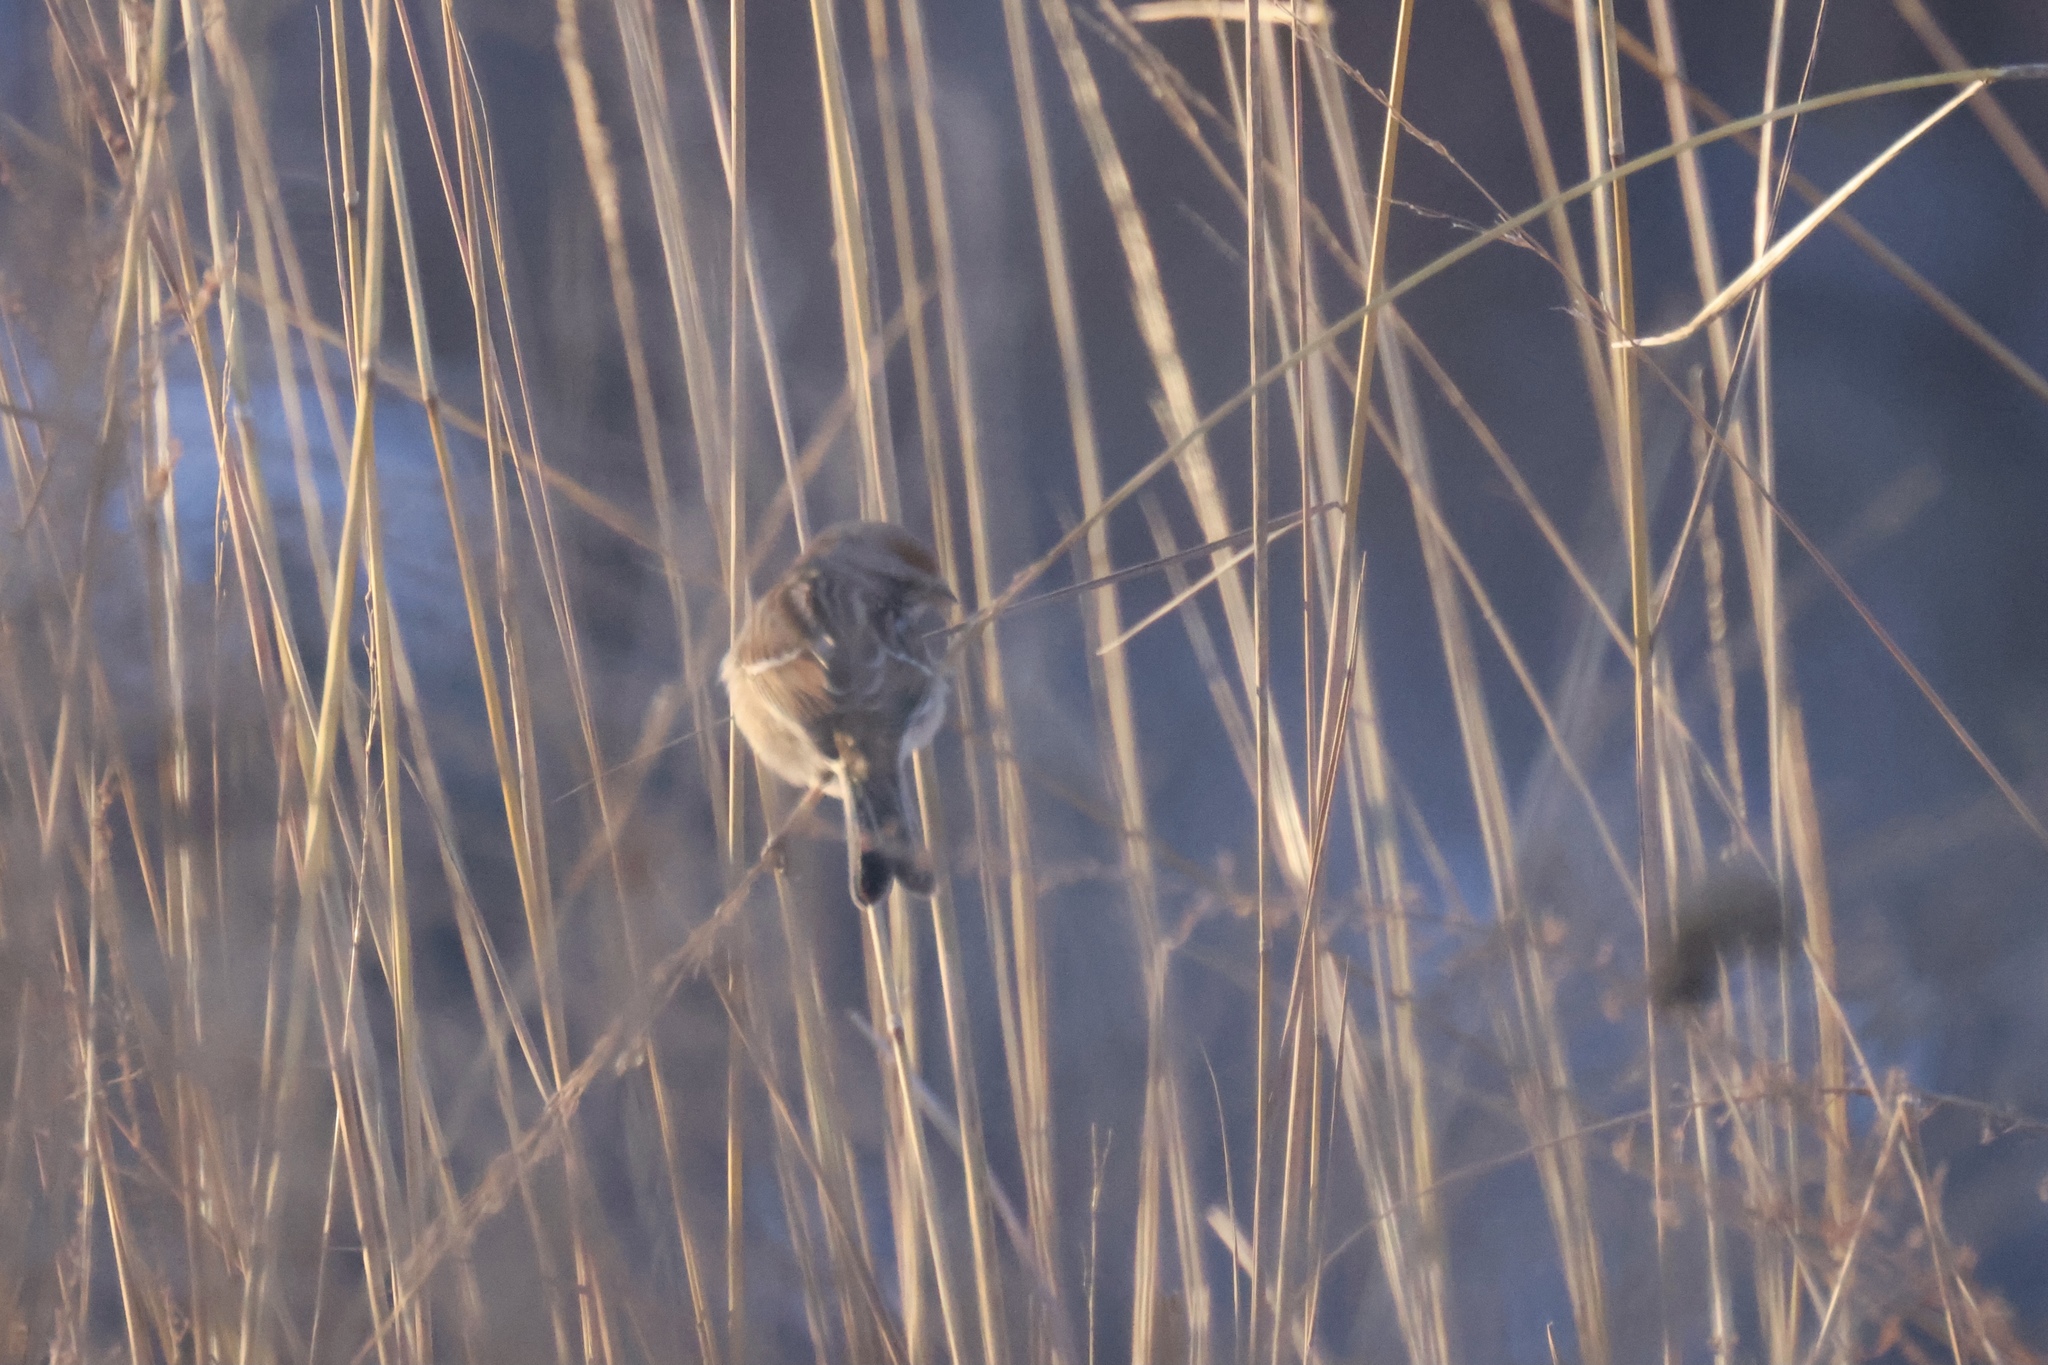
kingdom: Animalia
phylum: Chordata
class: Aves
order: Passeriformes
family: Passerellidae
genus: Spizelloides
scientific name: Spizelloides arborea
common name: American tree sparrow
